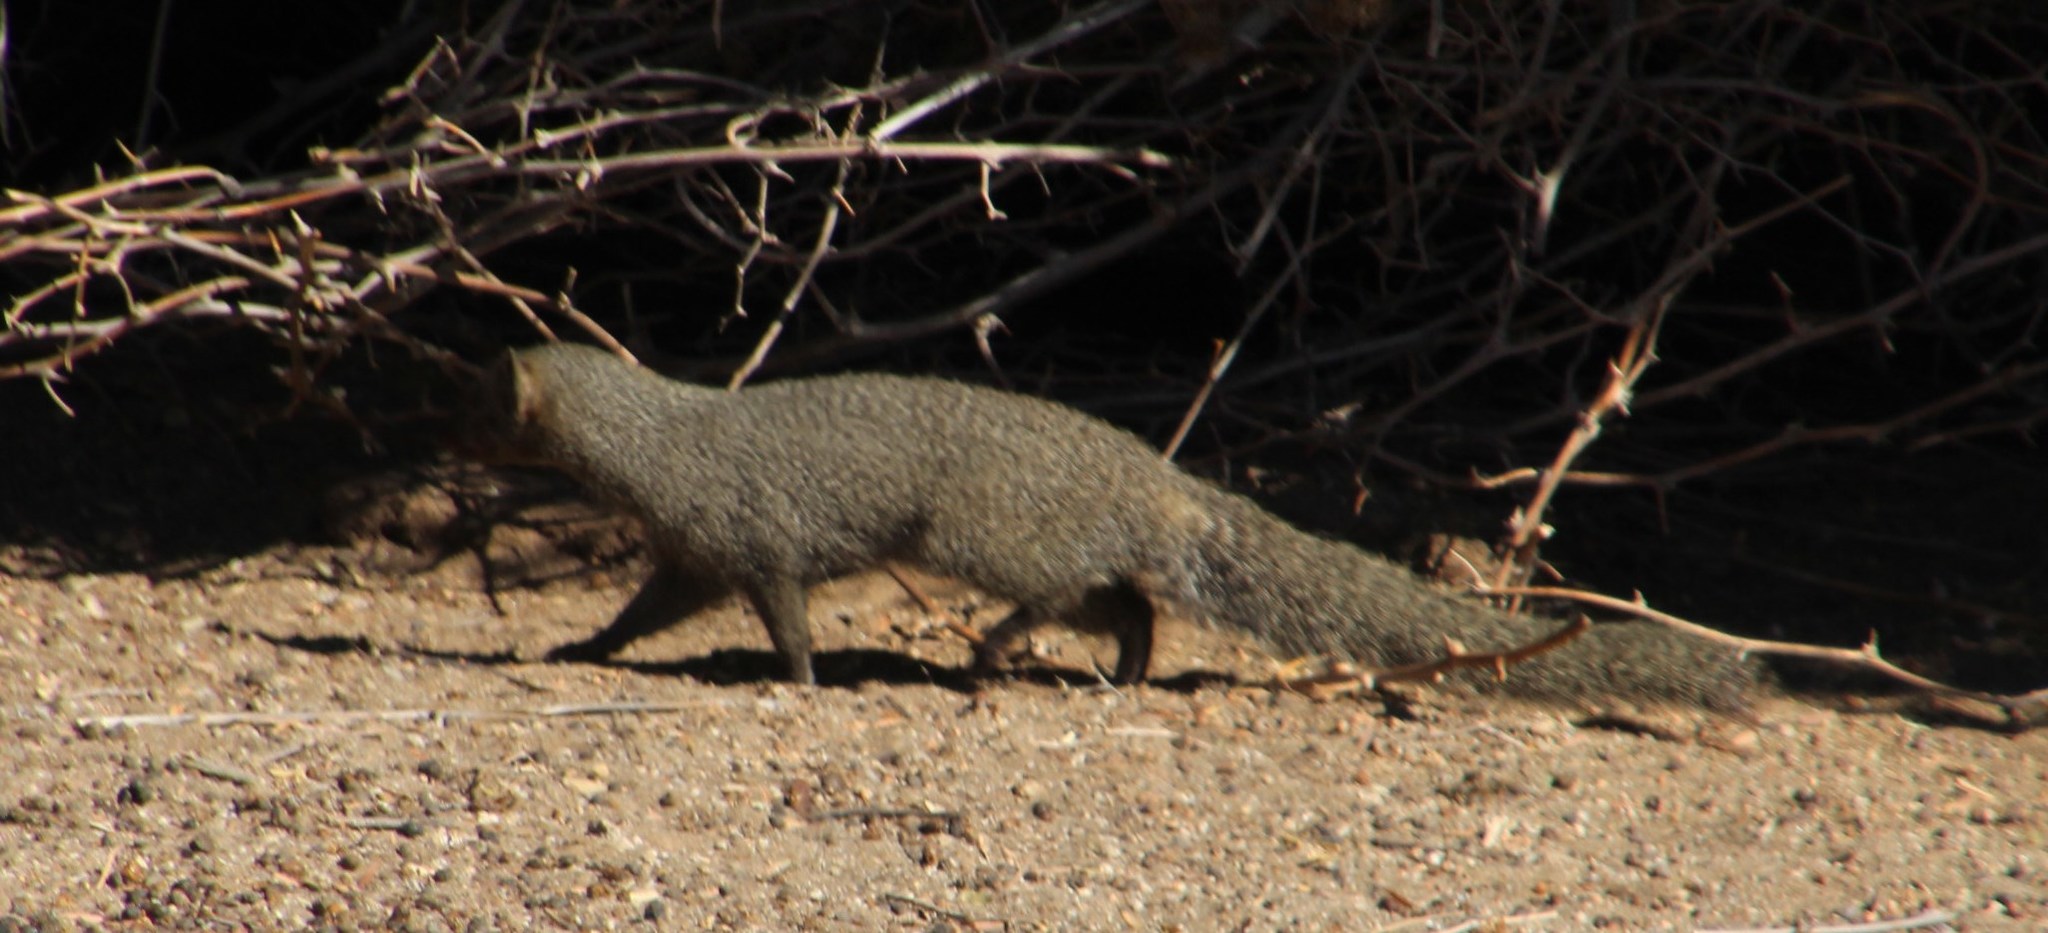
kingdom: Animalia
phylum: Chordata
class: Mammalia
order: Carnivora
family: Herpestidae
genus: Galerella
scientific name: Galerella pulverulenta
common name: Cape gray mongoose
